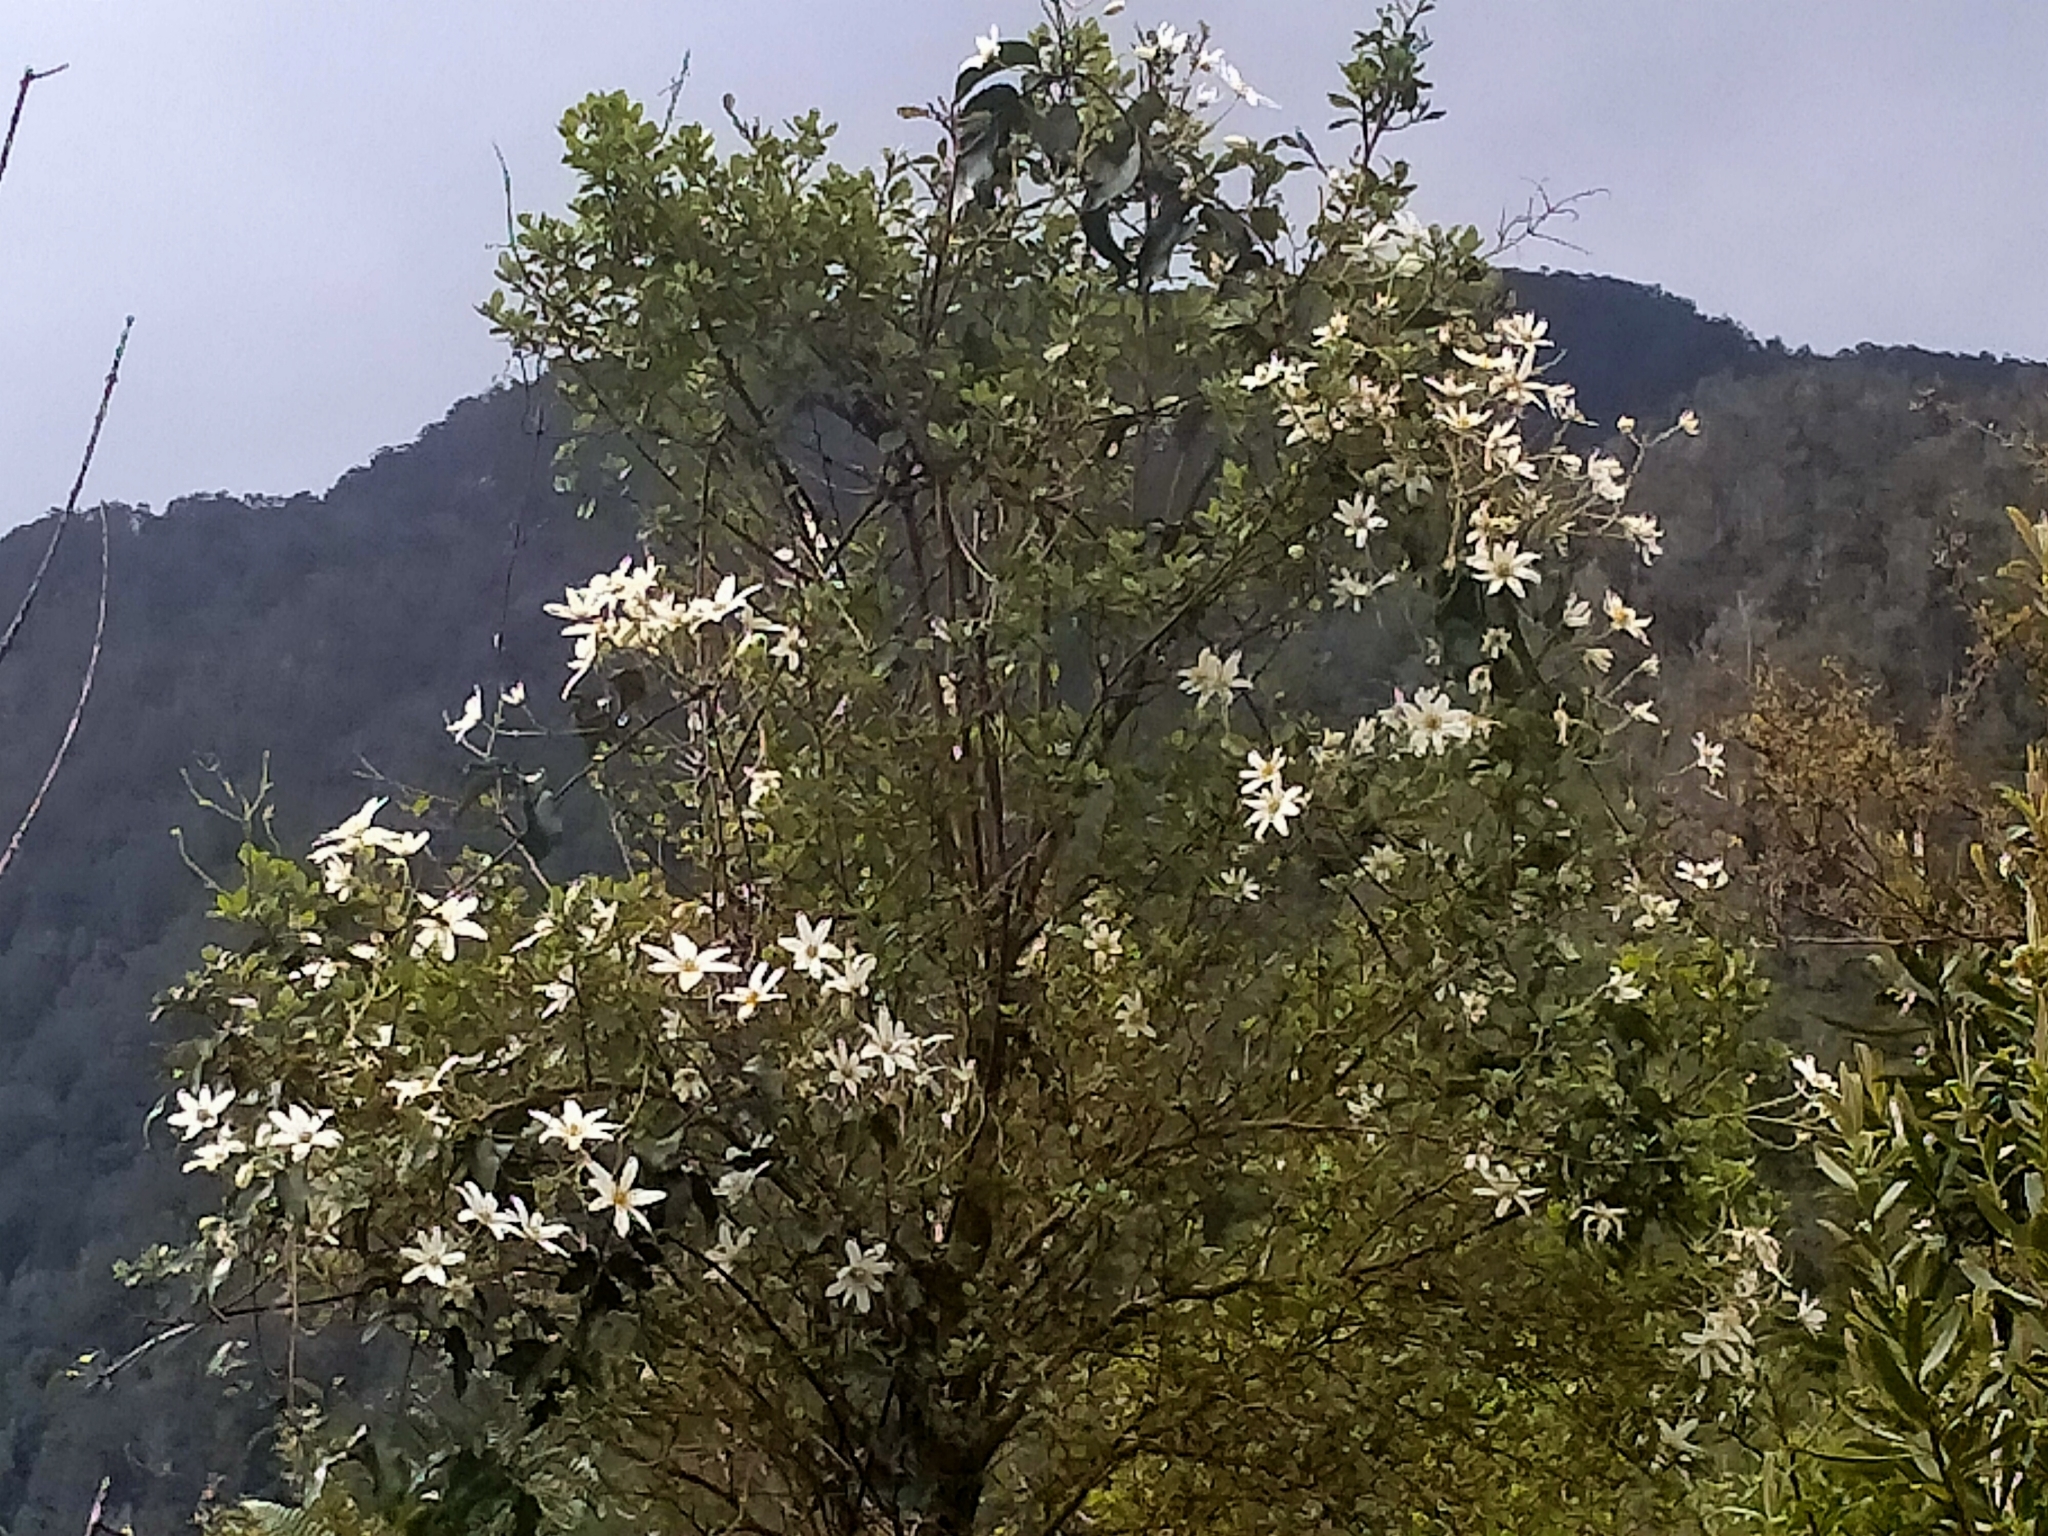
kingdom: Plantae
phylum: Tracheophyta
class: Magnoliopsida
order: Ranunculales
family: Ranunculaceae
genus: Clematis
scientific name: Clematis paniculata
